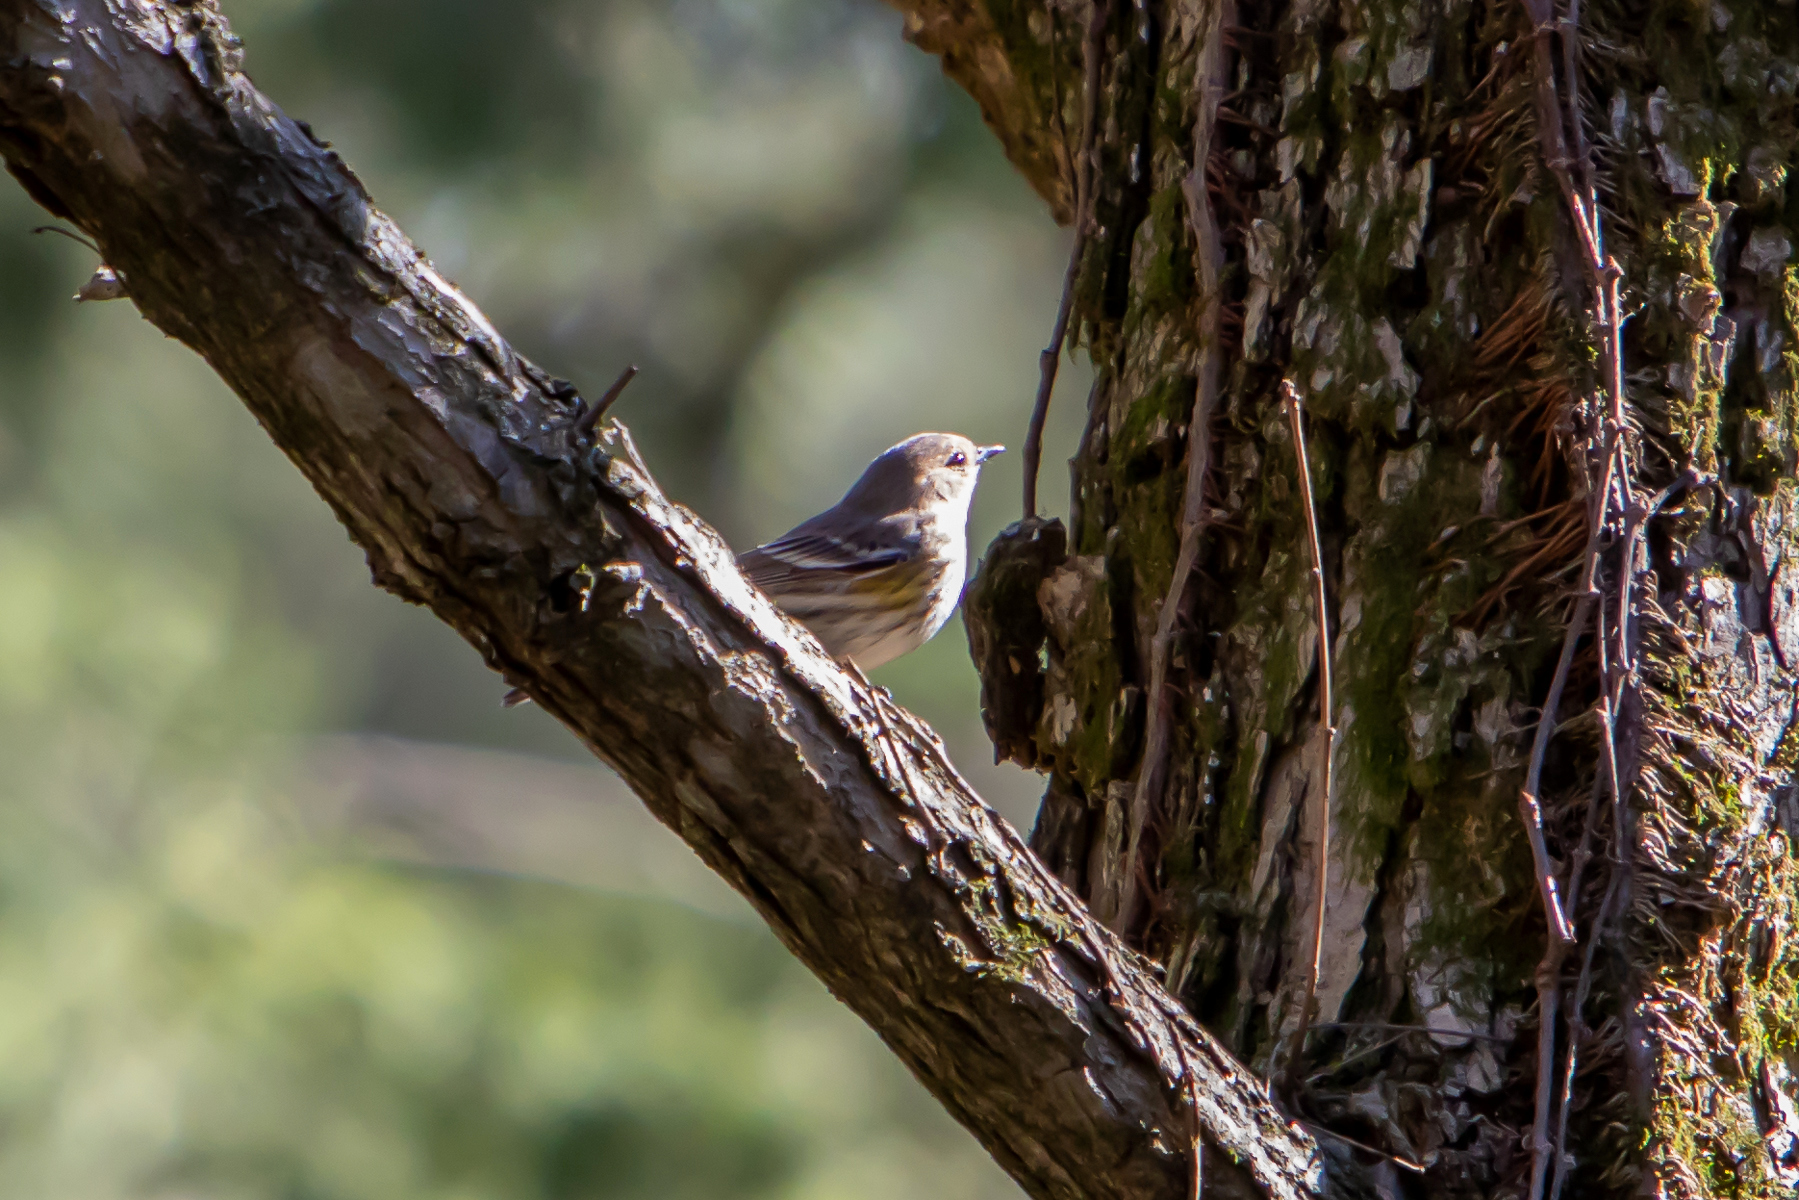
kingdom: Animalia
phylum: Chordata
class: Aves
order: Passeriformes
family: Parulidae
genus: Setophaga
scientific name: Setophaga coronata
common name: Myrtle warbler
